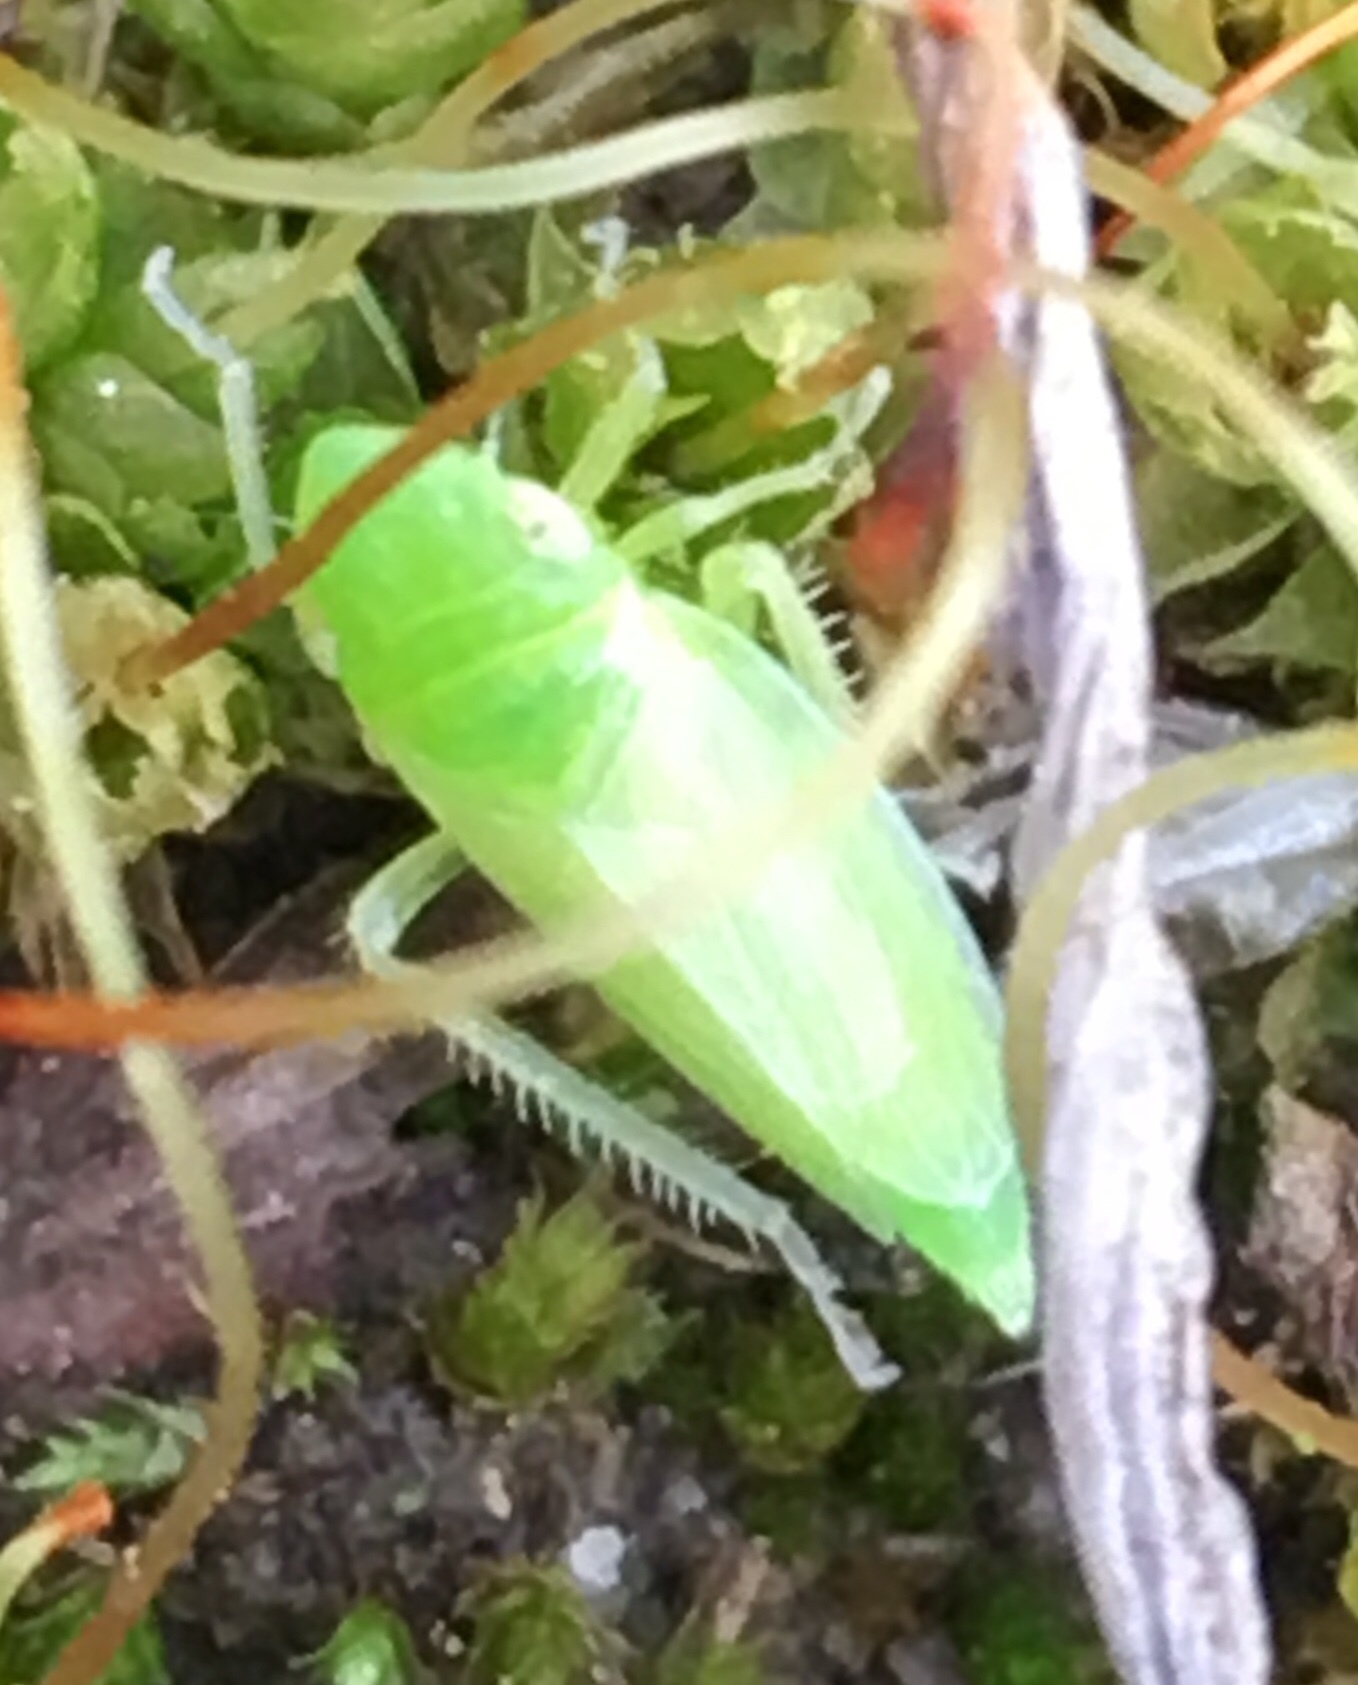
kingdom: Animalia
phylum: Arthropoda
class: Insecta
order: Hemiptera
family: Cicadellidae
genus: Neocoelidia
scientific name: Neocoelidia pallida
